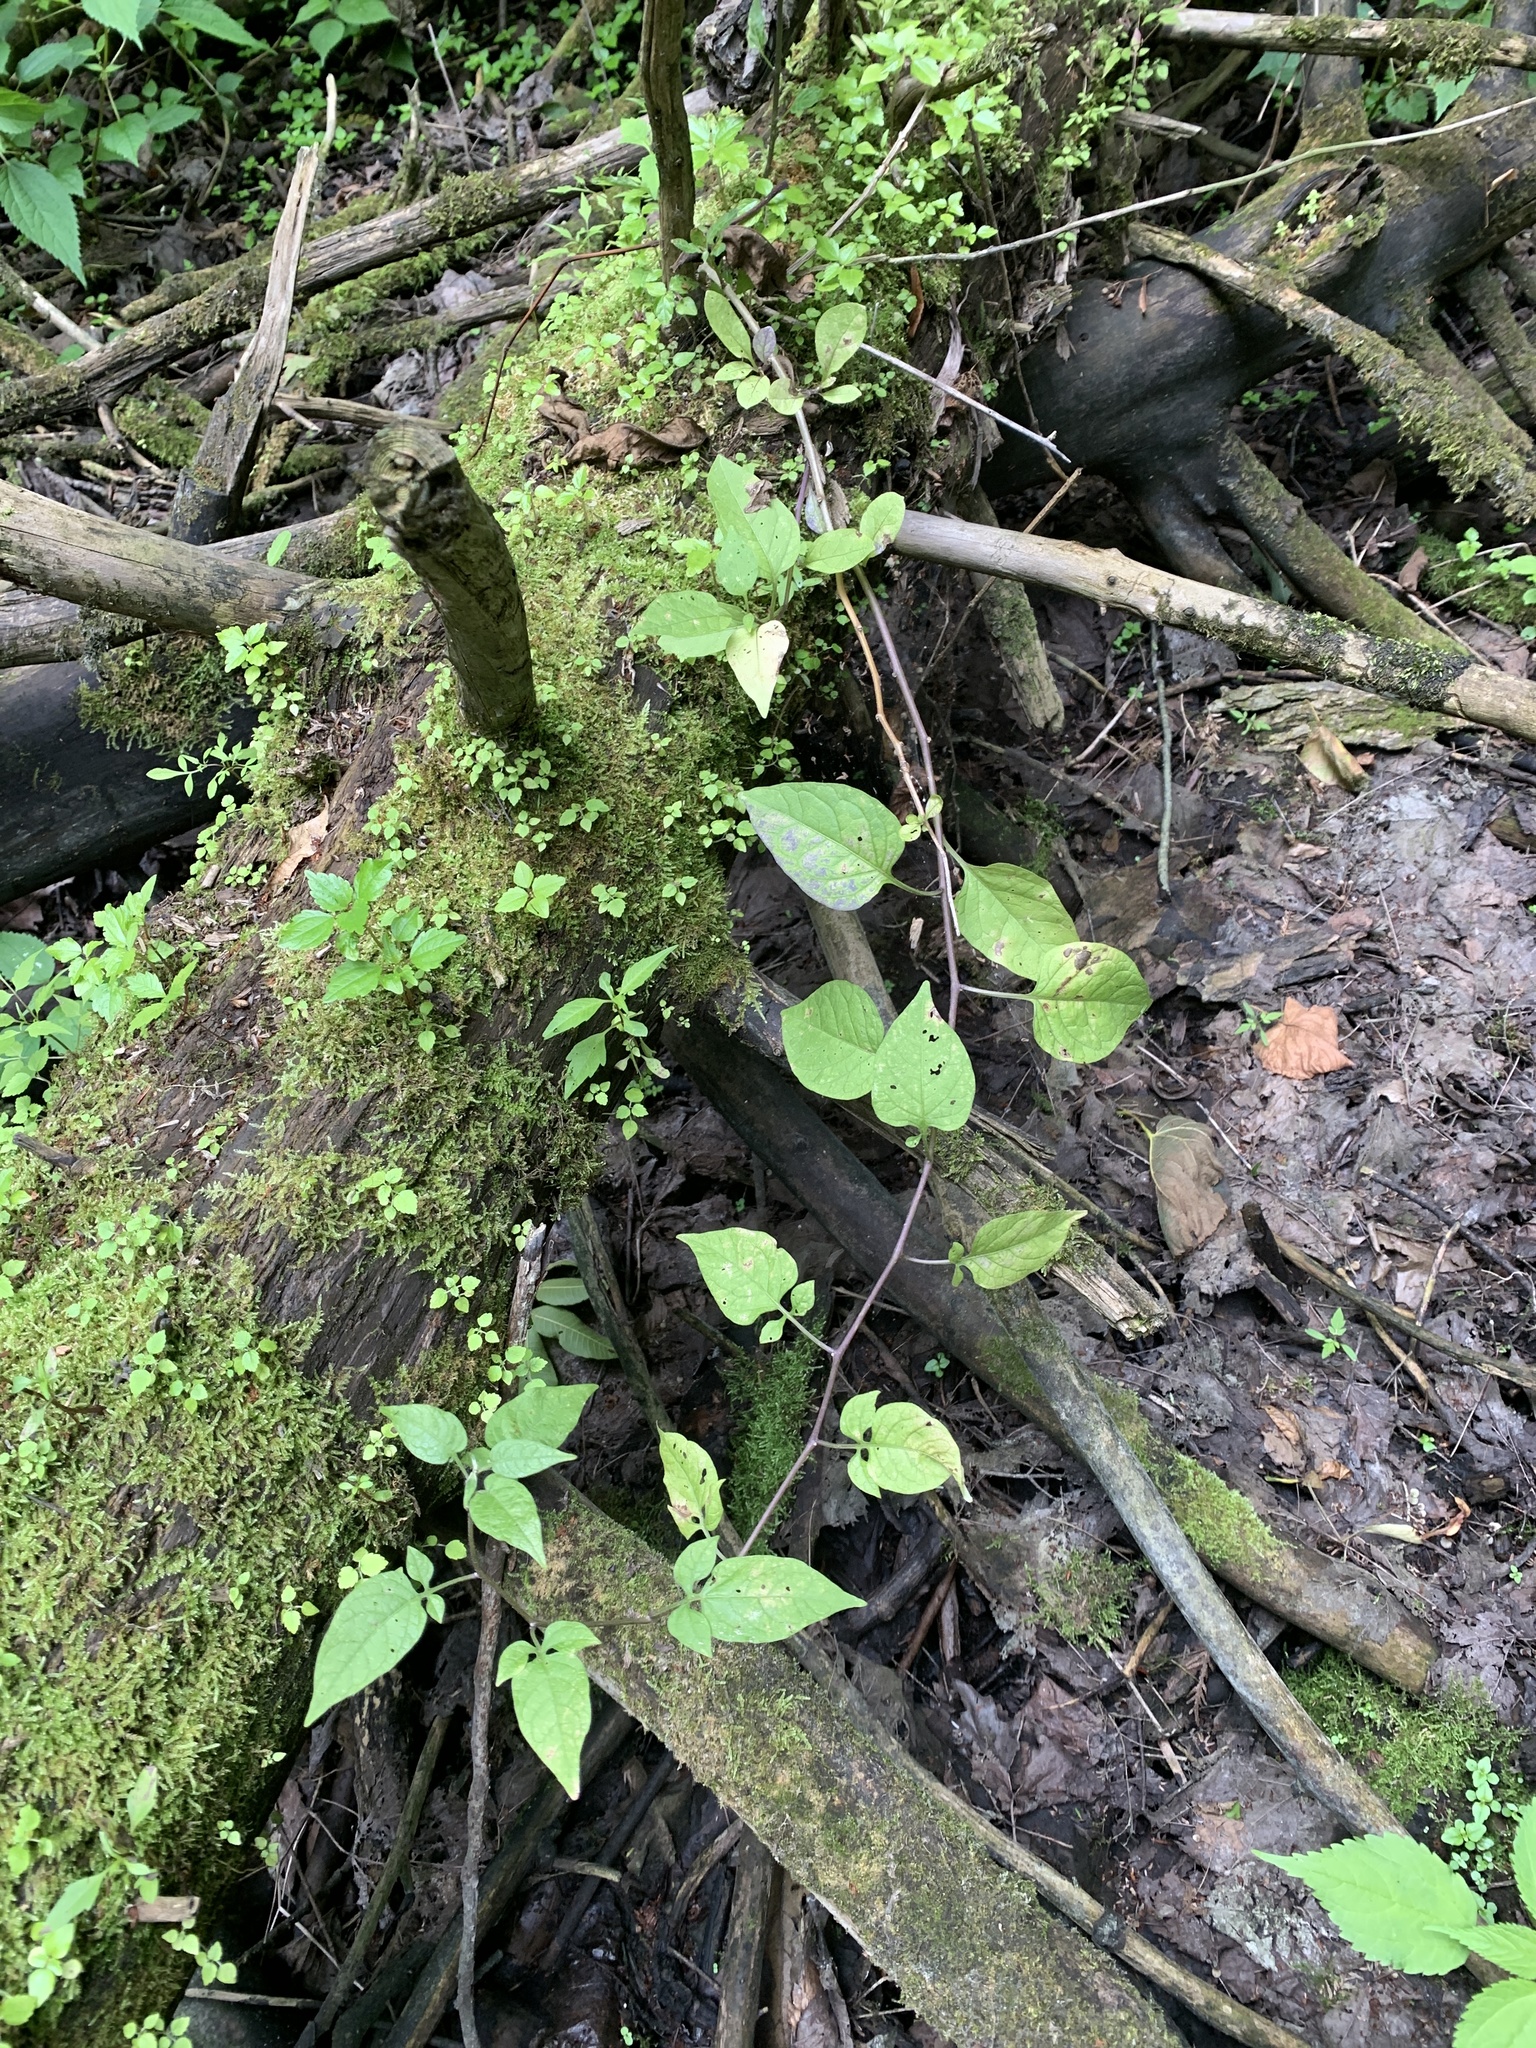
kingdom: Plantae
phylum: Tracheophyta
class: Magnoliopsida
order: Solanales
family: Solanaceae
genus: Solanum
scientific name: Solanum dulcamara
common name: Climbing nightshade
